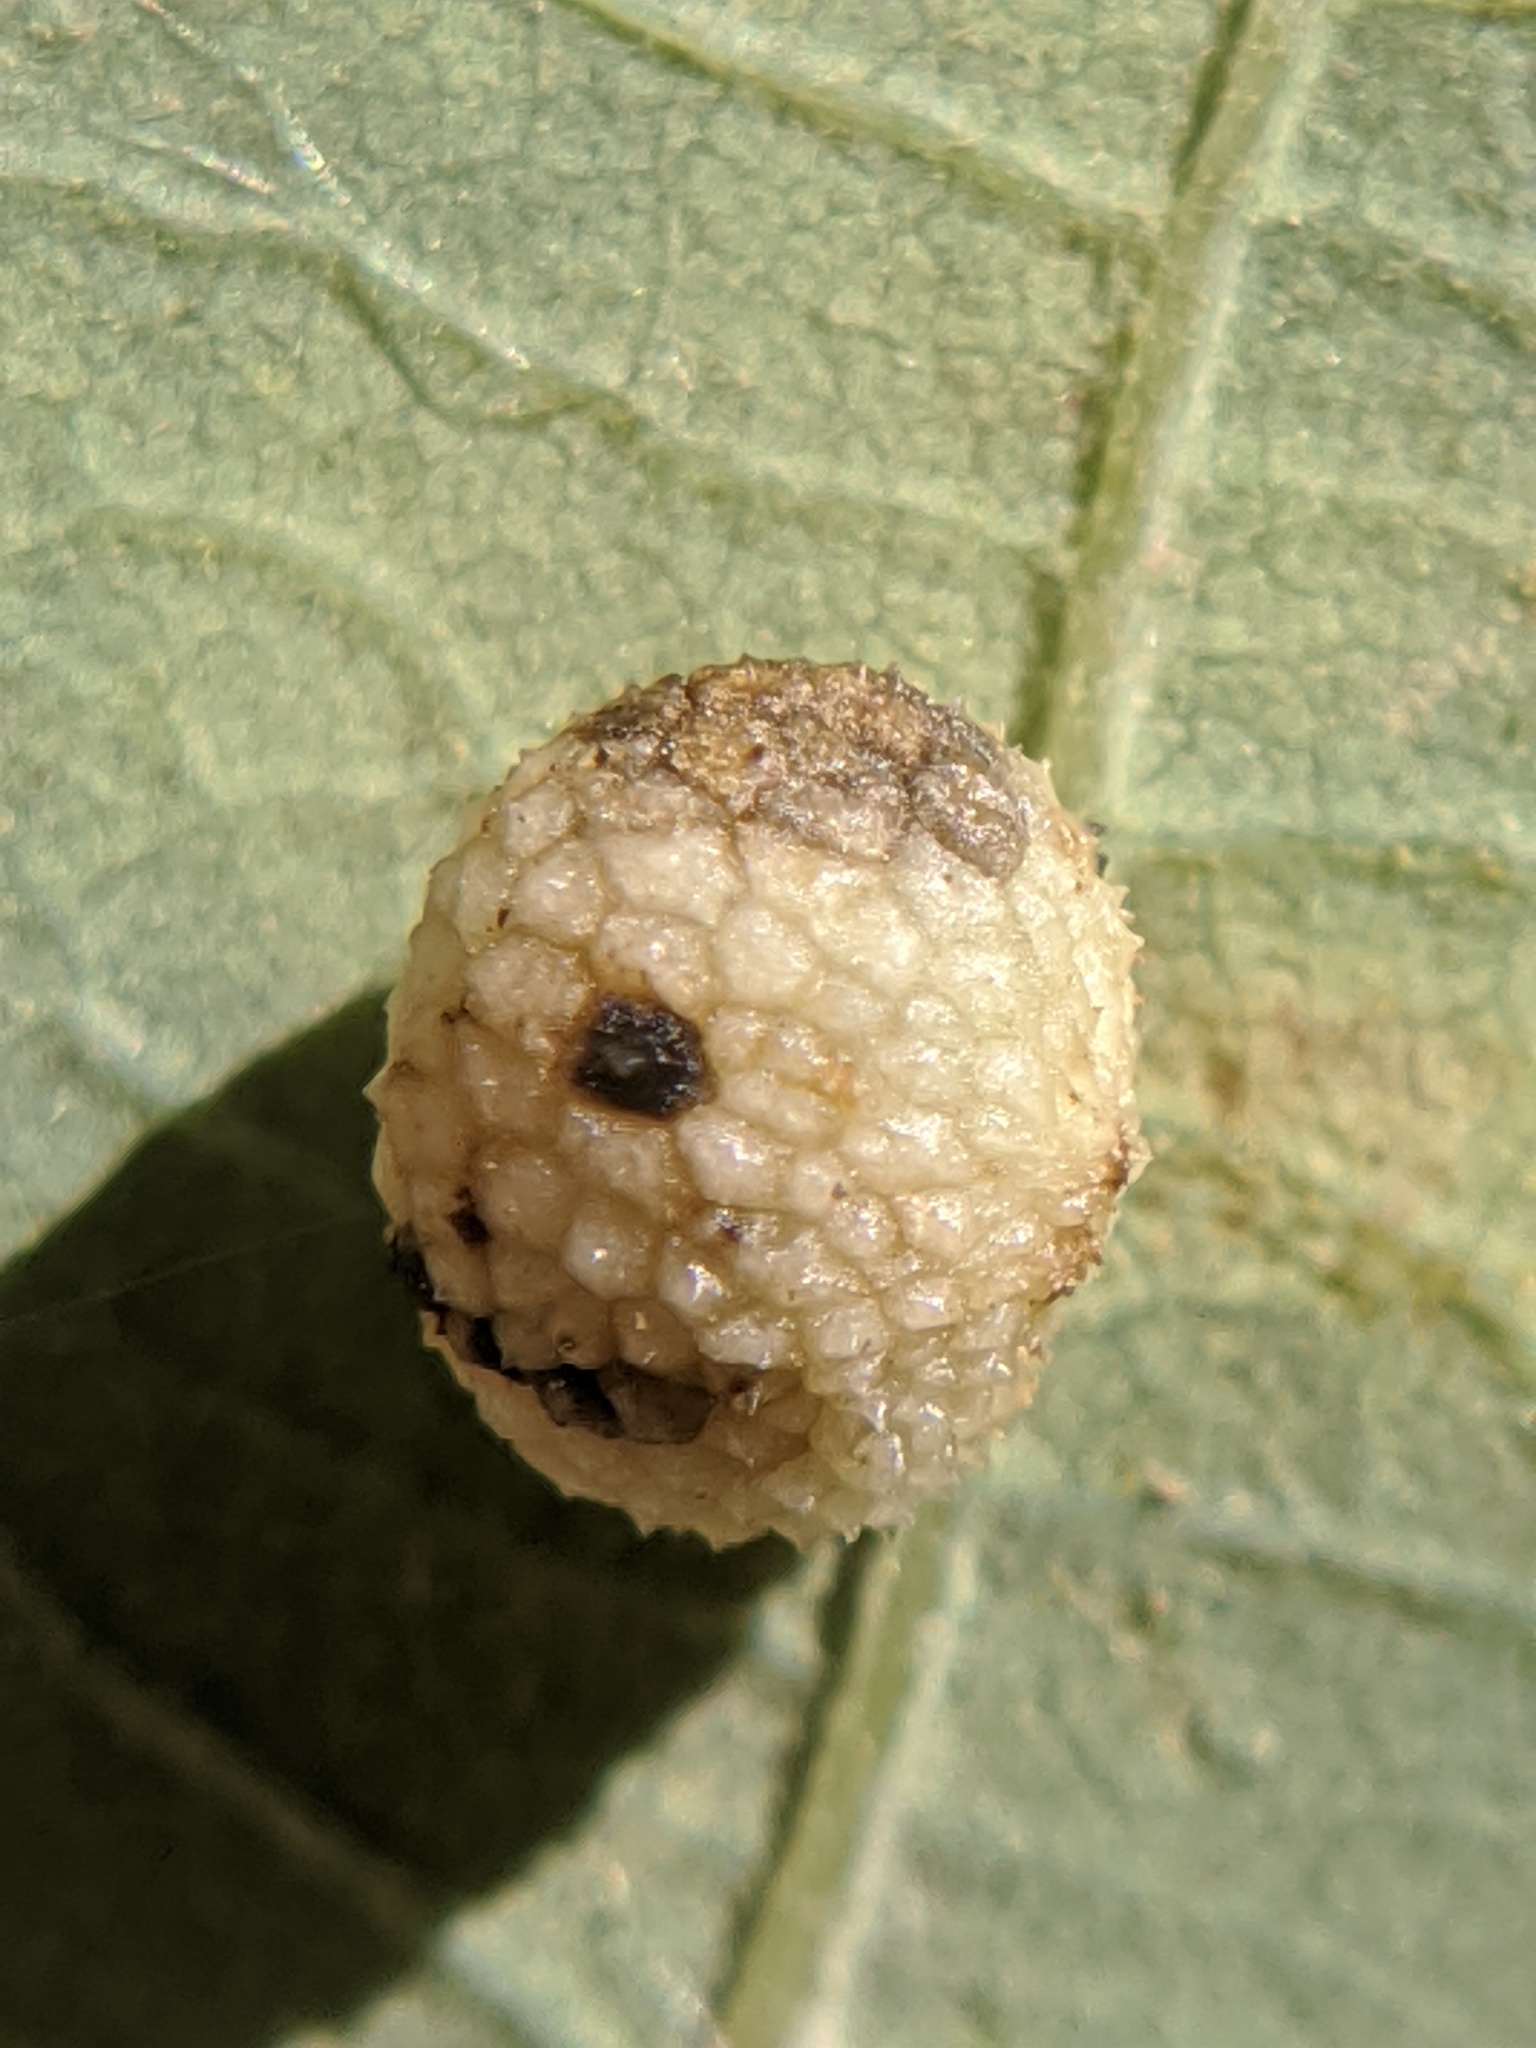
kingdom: Animalia
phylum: Arthropoda
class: Insecta
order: Hymenoptera
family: Cynipidae
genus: Acraspis
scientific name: Acraspis quercushirta
